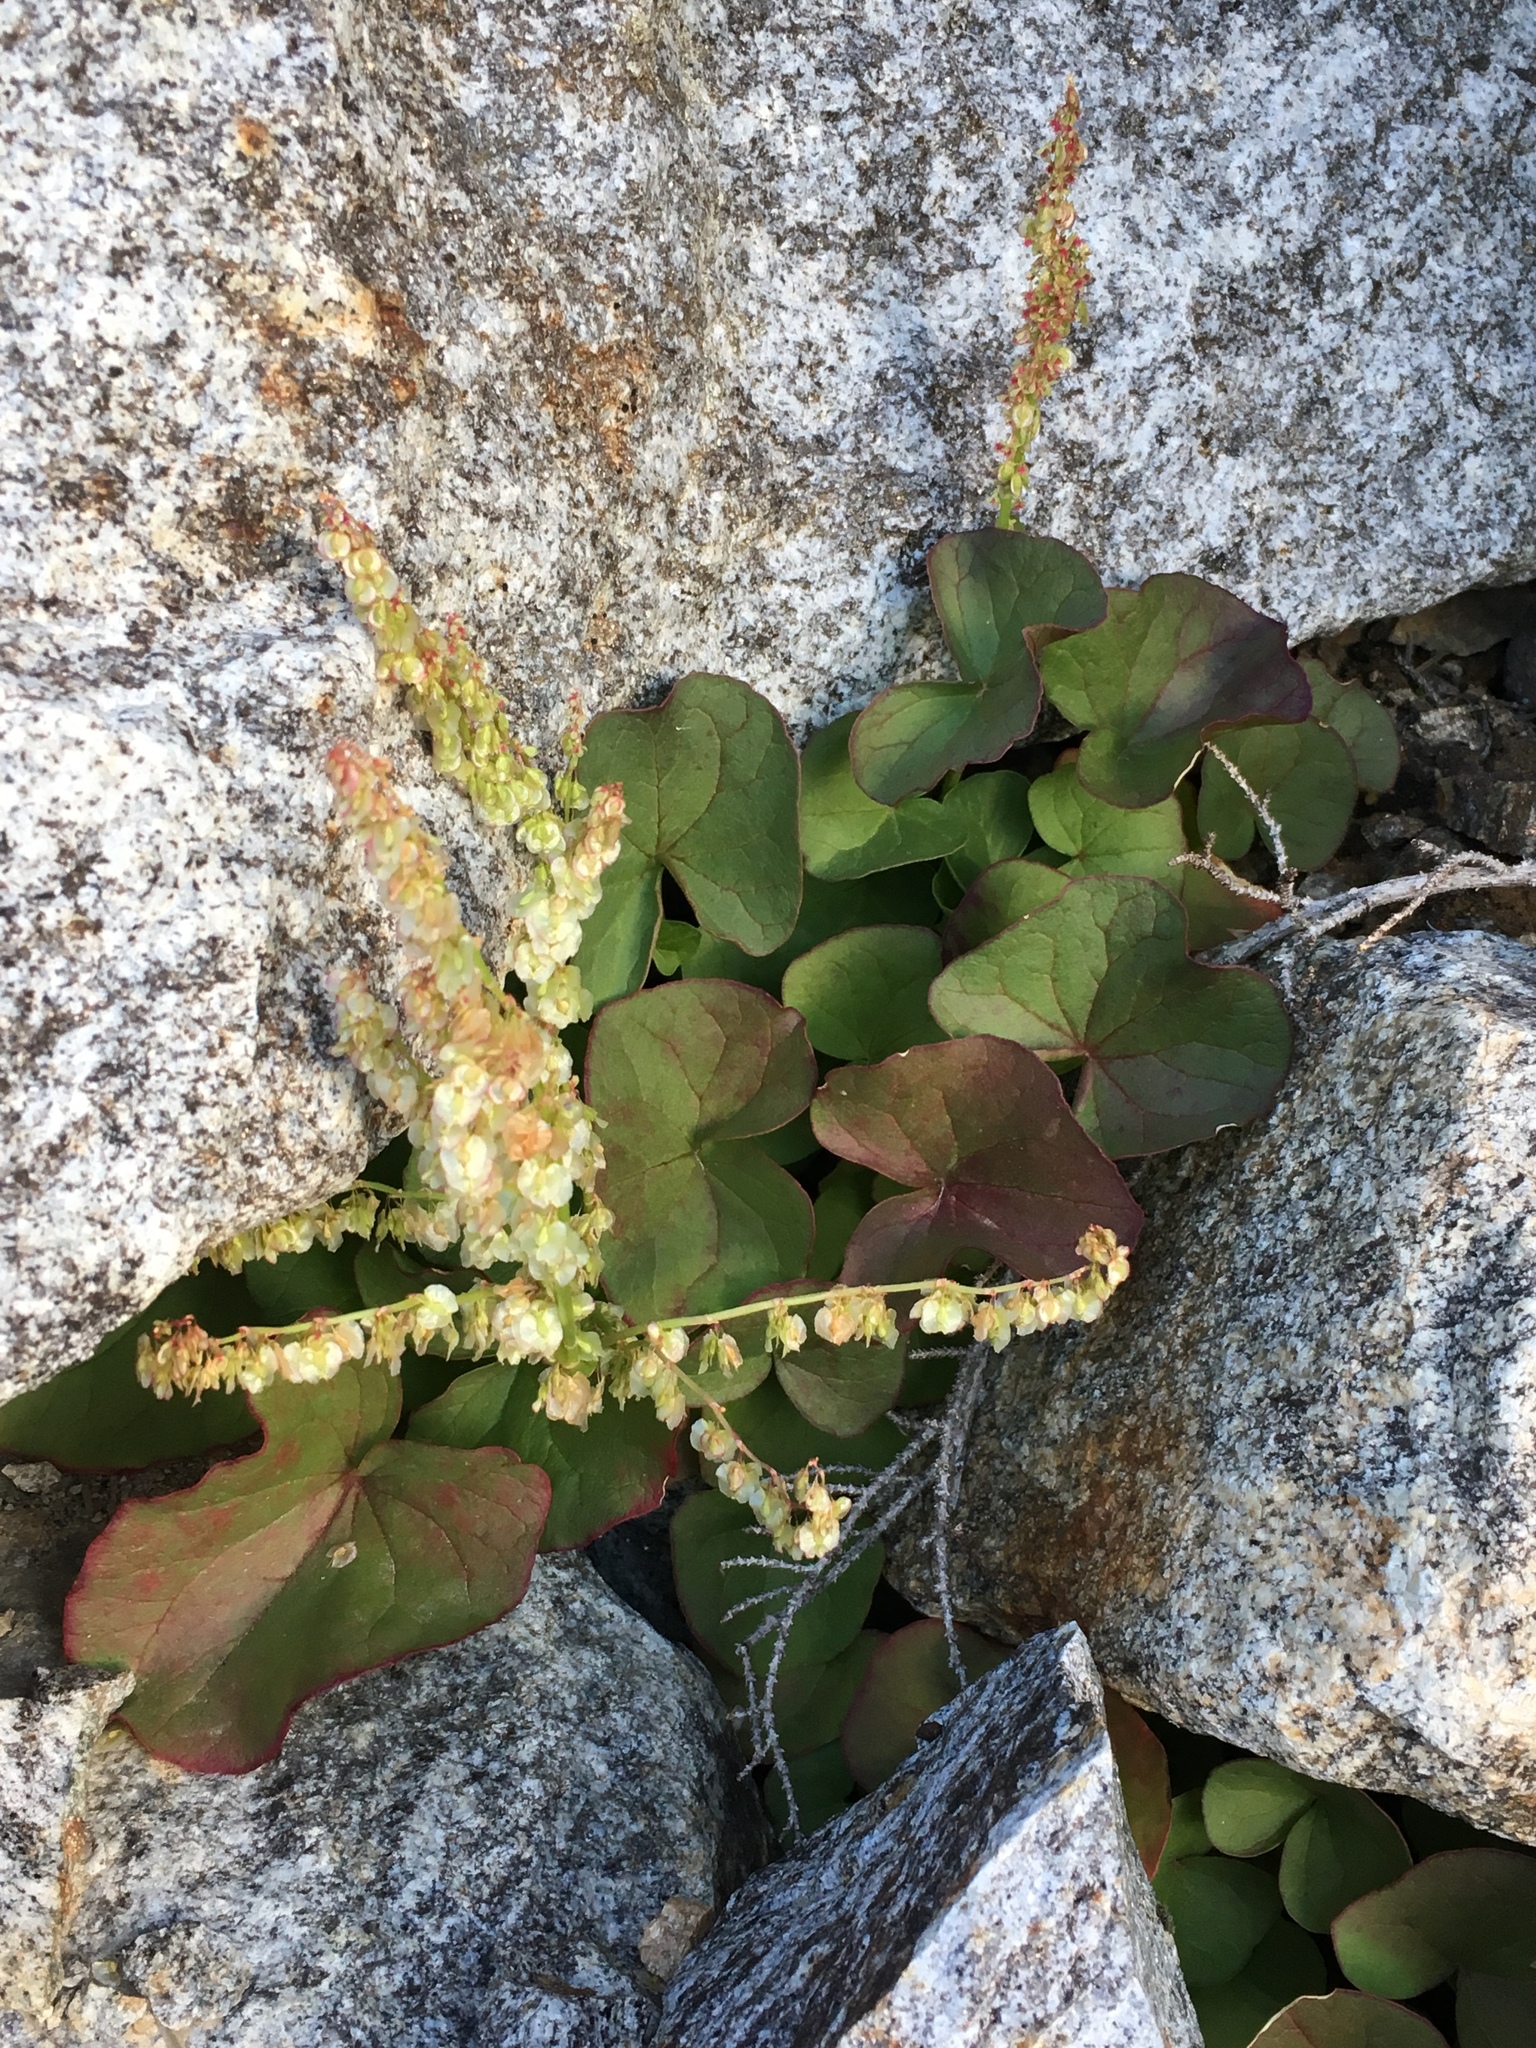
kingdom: Plantae
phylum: Tracheophyta
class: Magnoliopsida
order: Caryophyllales
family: Polygonaceae
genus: Oxyria
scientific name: Oxyria digyna
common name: Alpine mountain-sorrel
